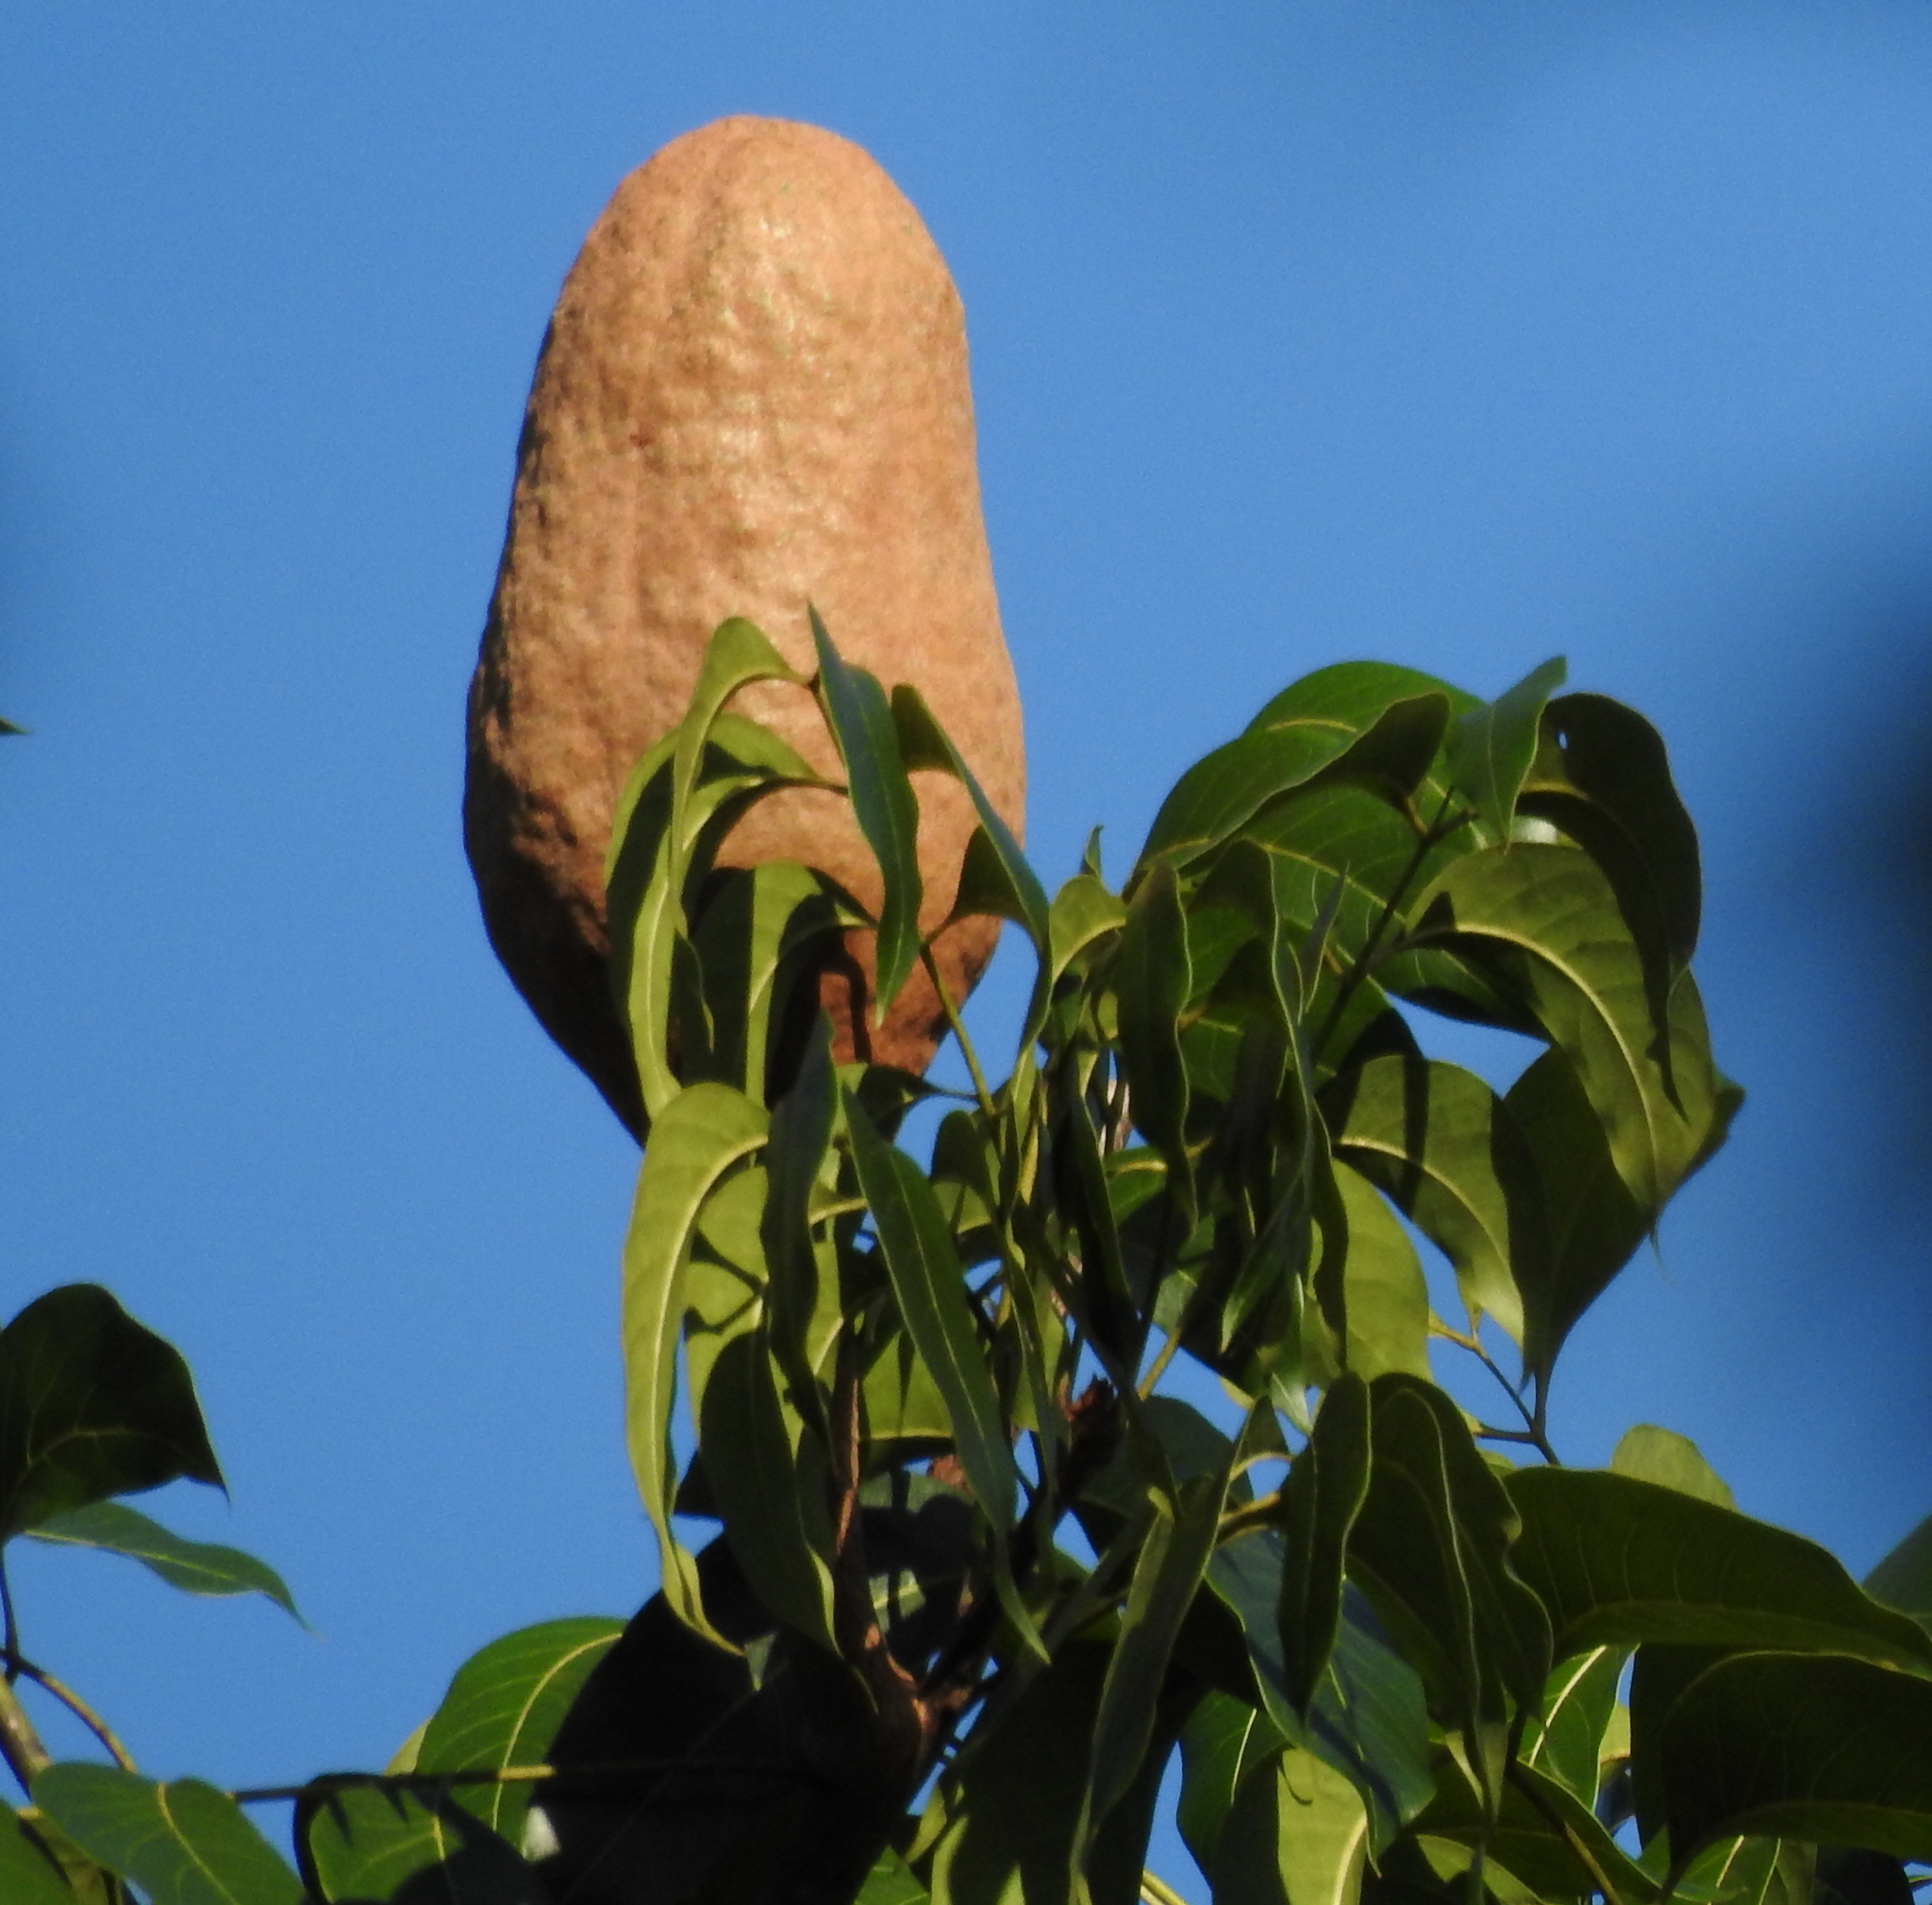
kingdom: Plantae
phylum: Tracheophyta
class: Magnoliopsida
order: Sapindales
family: Meliaceae
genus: Swietenia
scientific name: Swietenia macrophylla
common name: Honduras mahogany
